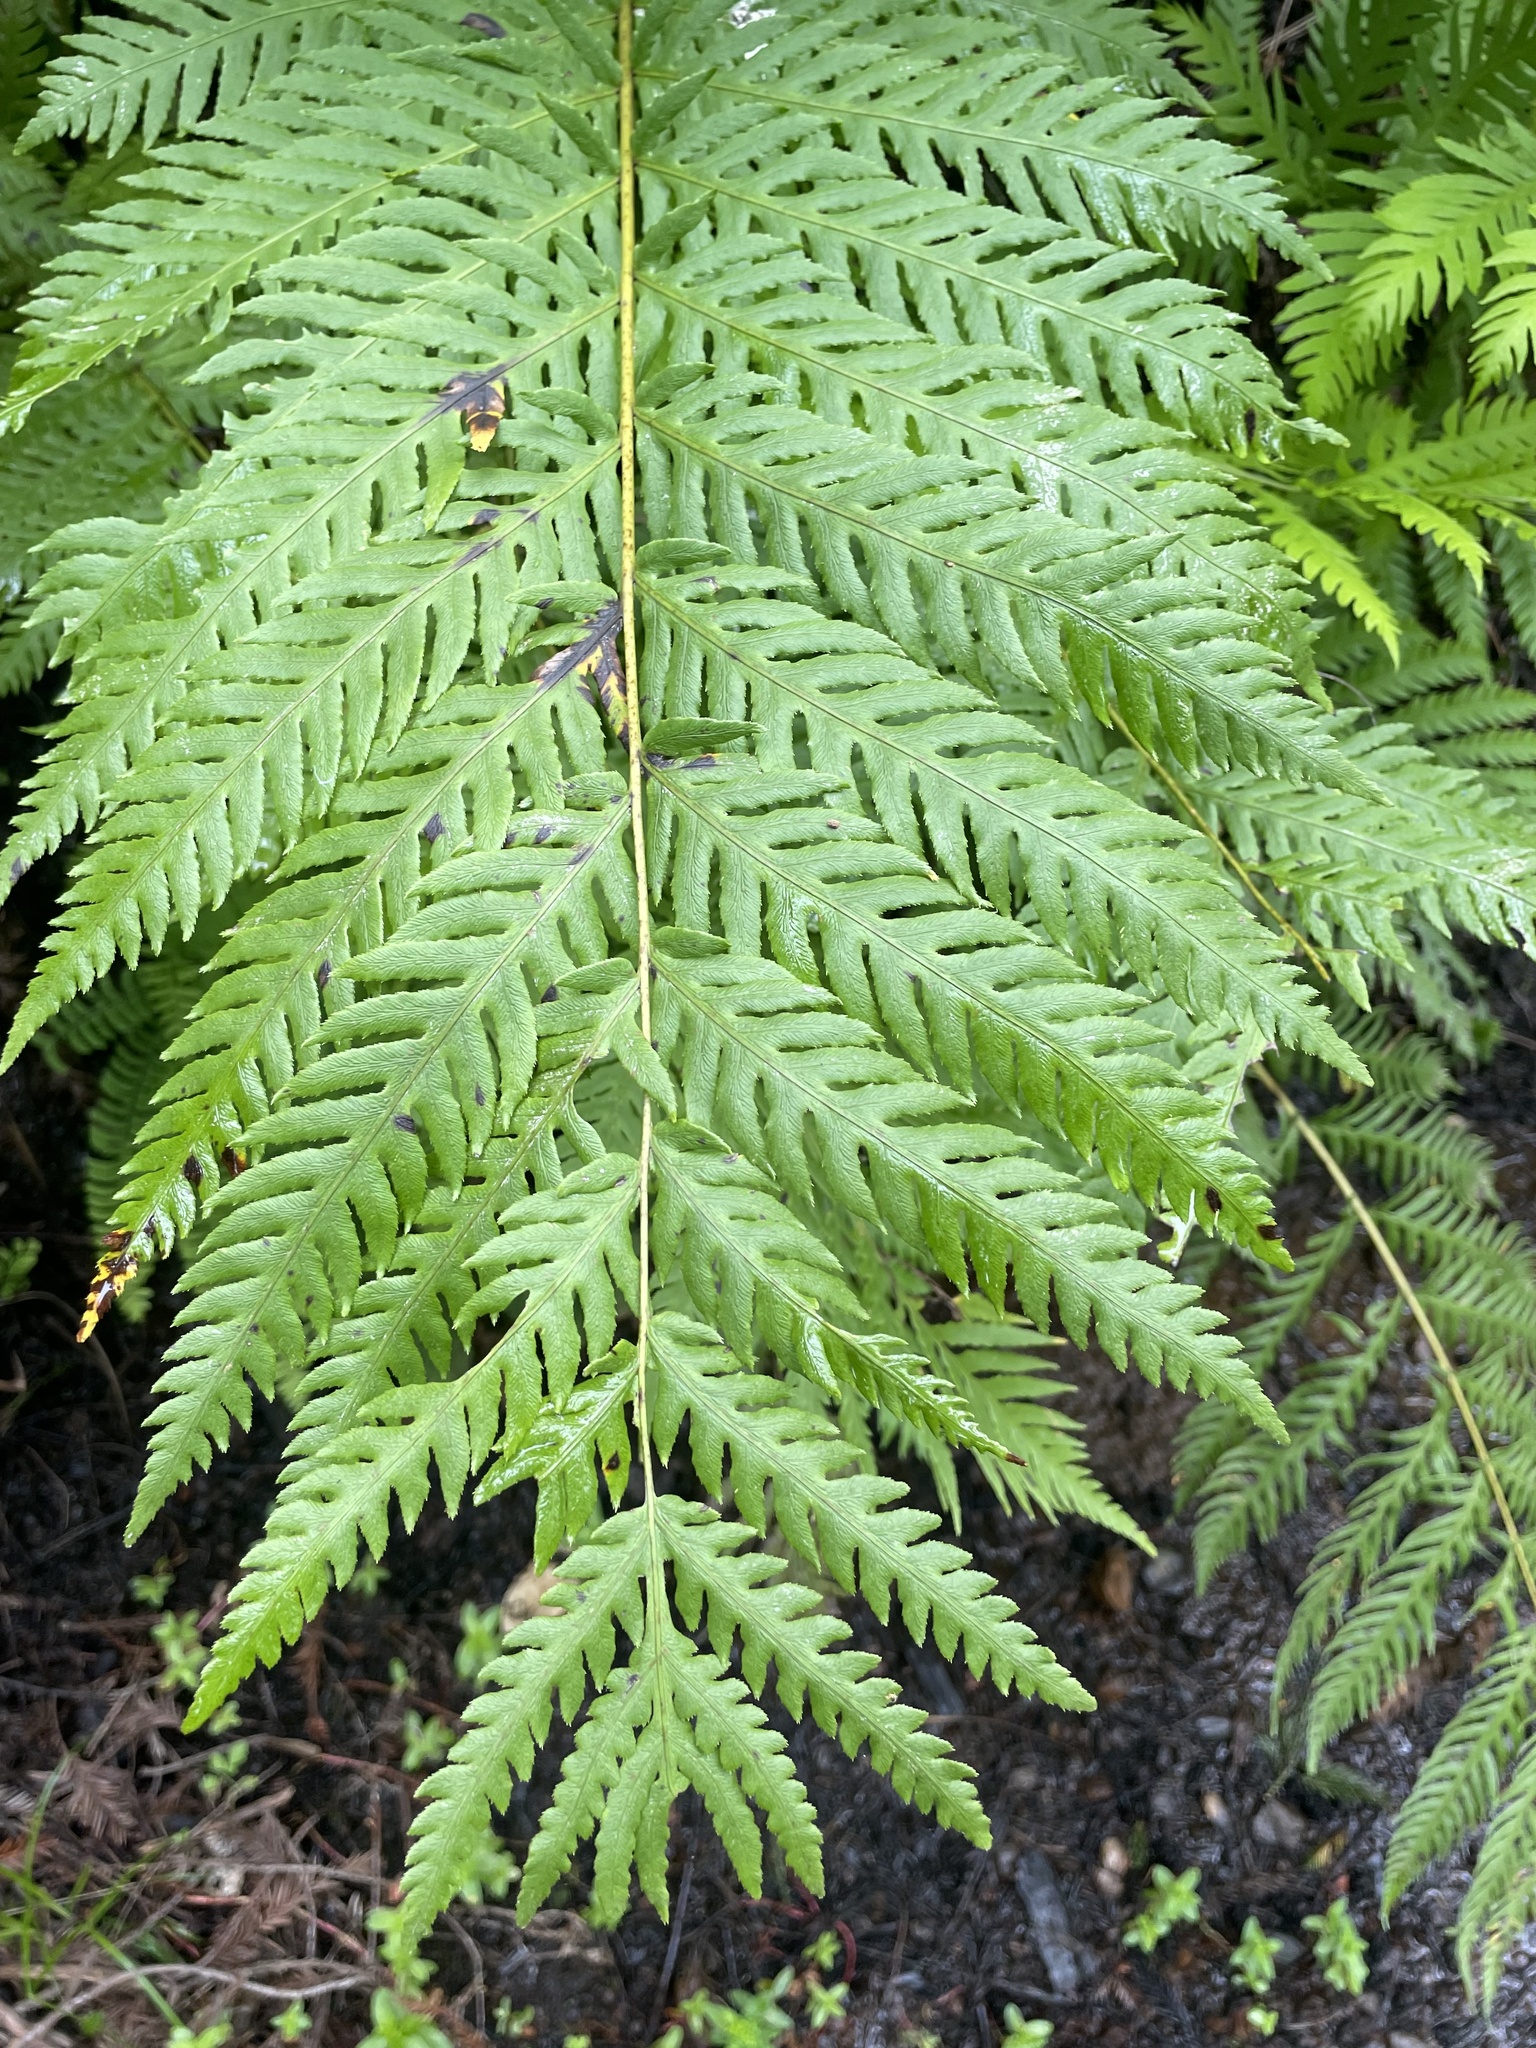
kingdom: Plantae
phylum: Tracheophyta
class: Polypodiopsida
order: Polypodiales
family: Blechnaceae
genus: Woodwardia
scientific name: Woodwardia fimbriata
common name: Giant chain fern
